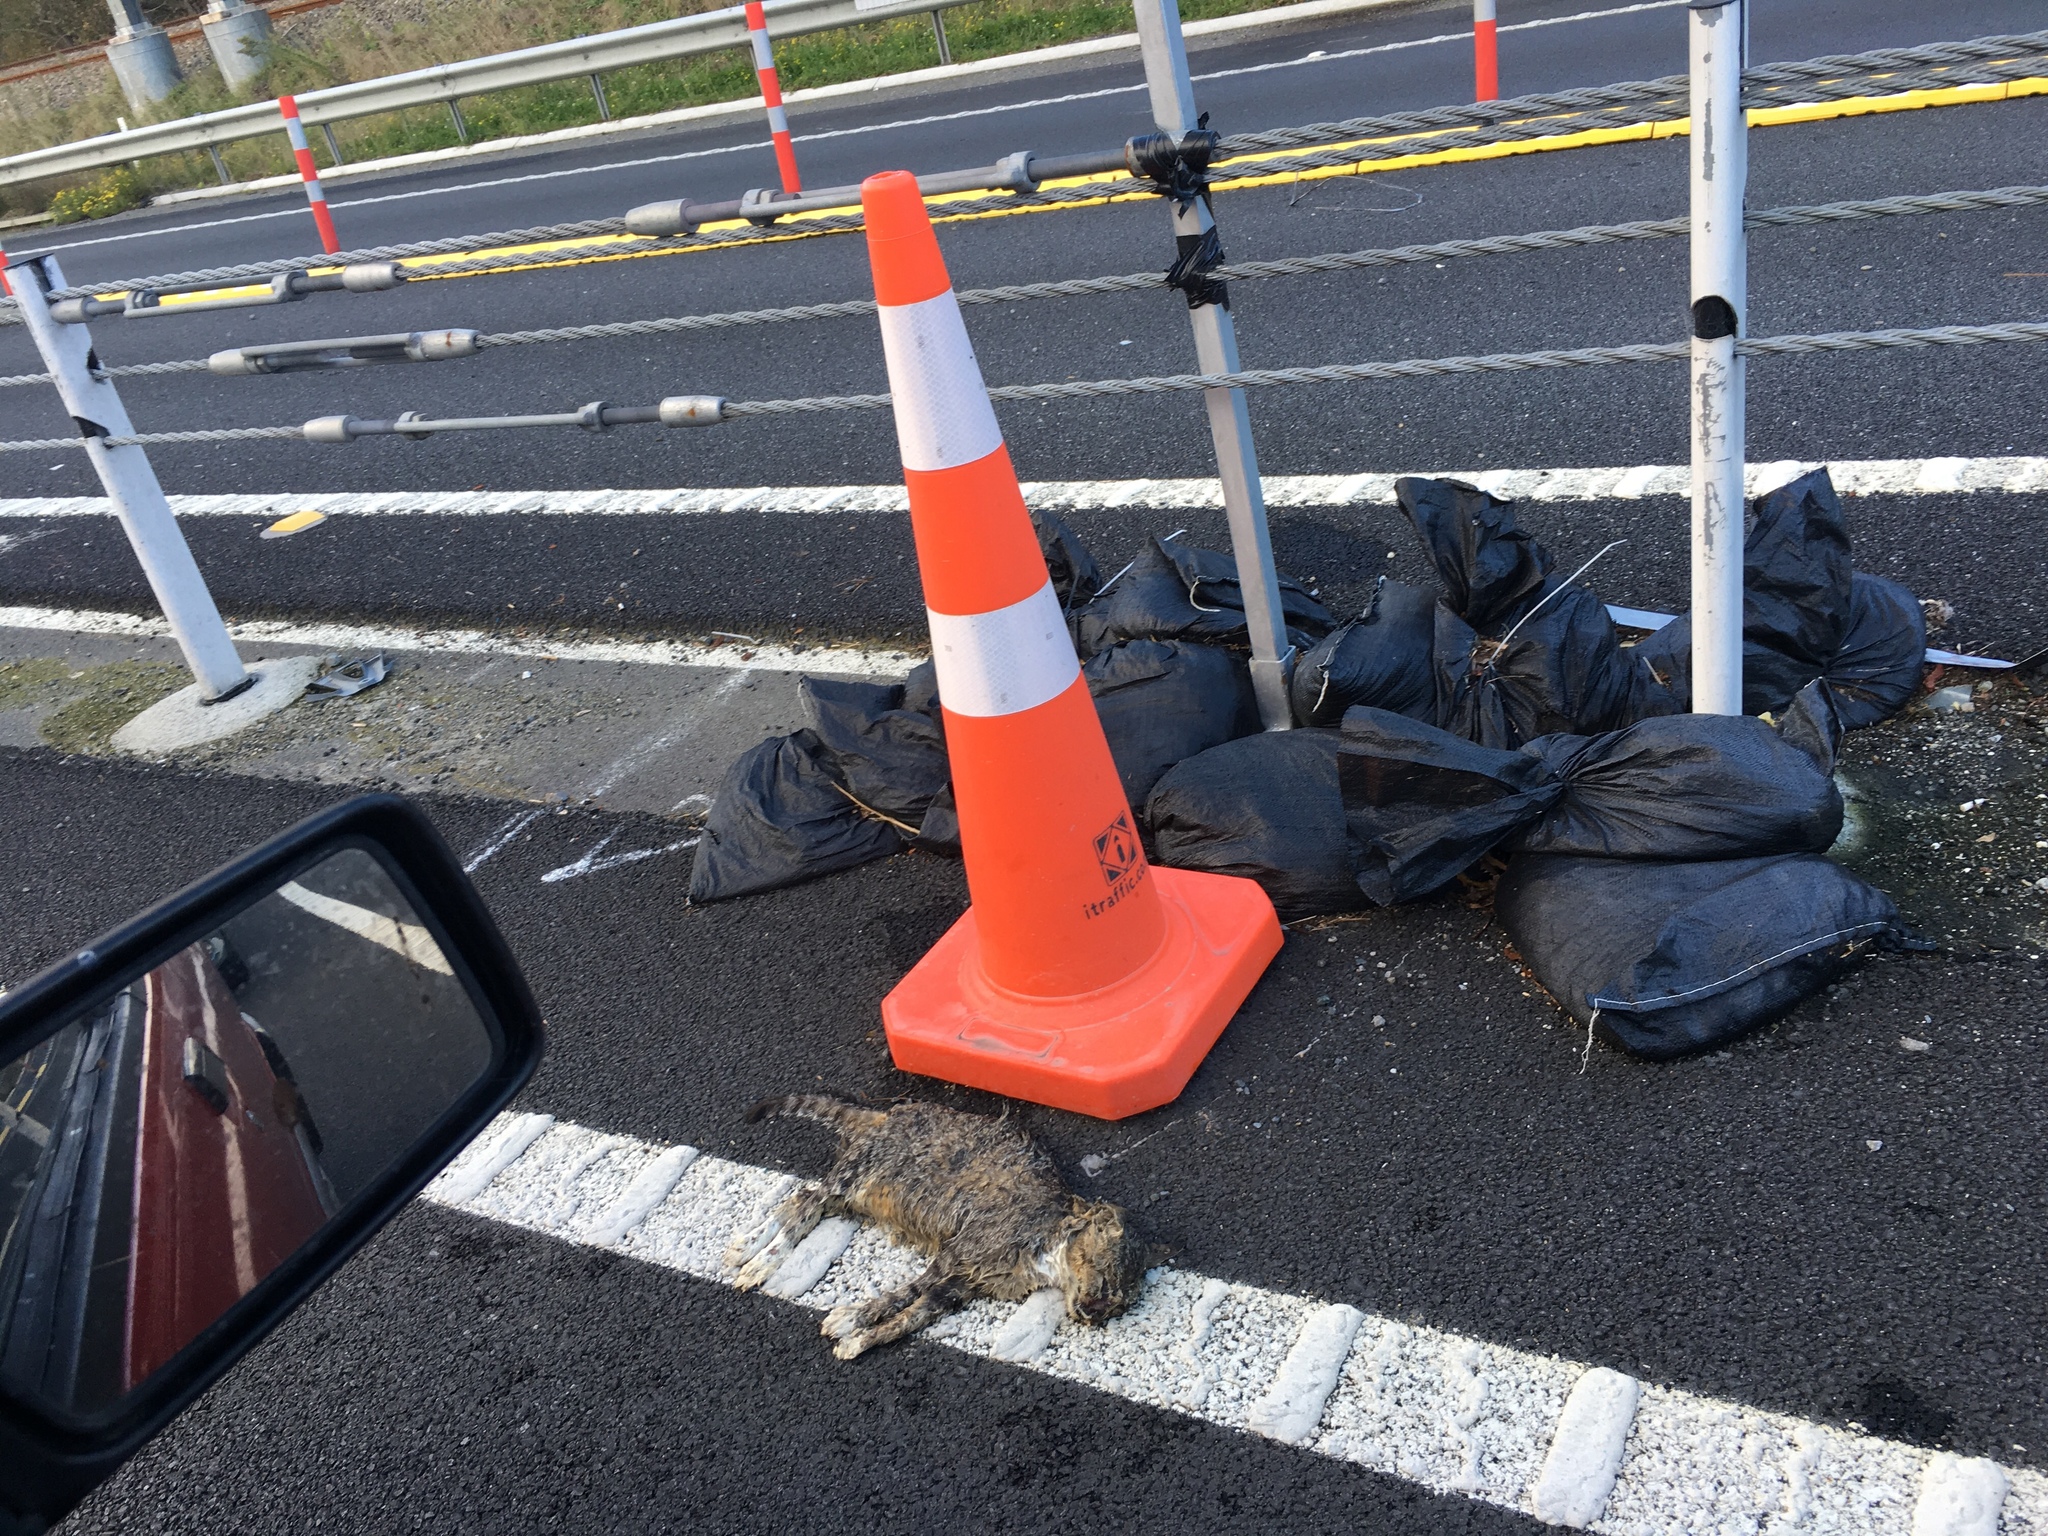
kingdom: Animalia
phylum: Chordata
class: Mammalia
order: Carnivora
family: Felidae
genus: Felis
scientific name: Felis catus
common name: Domestic cat
